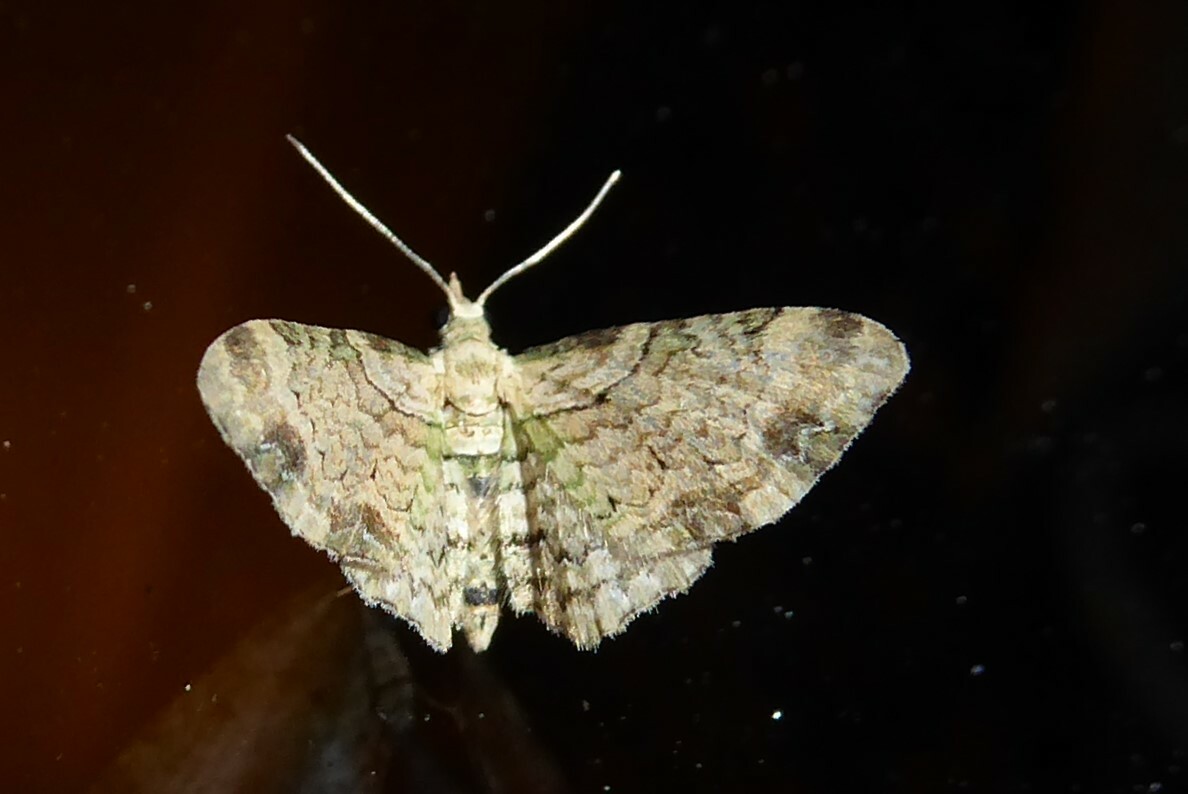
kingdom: Animalia
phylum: Arthropoda
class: Insecta
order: Lepidoptera
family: Geometridae
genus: Chloroclystis
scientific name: Chloroclystis
